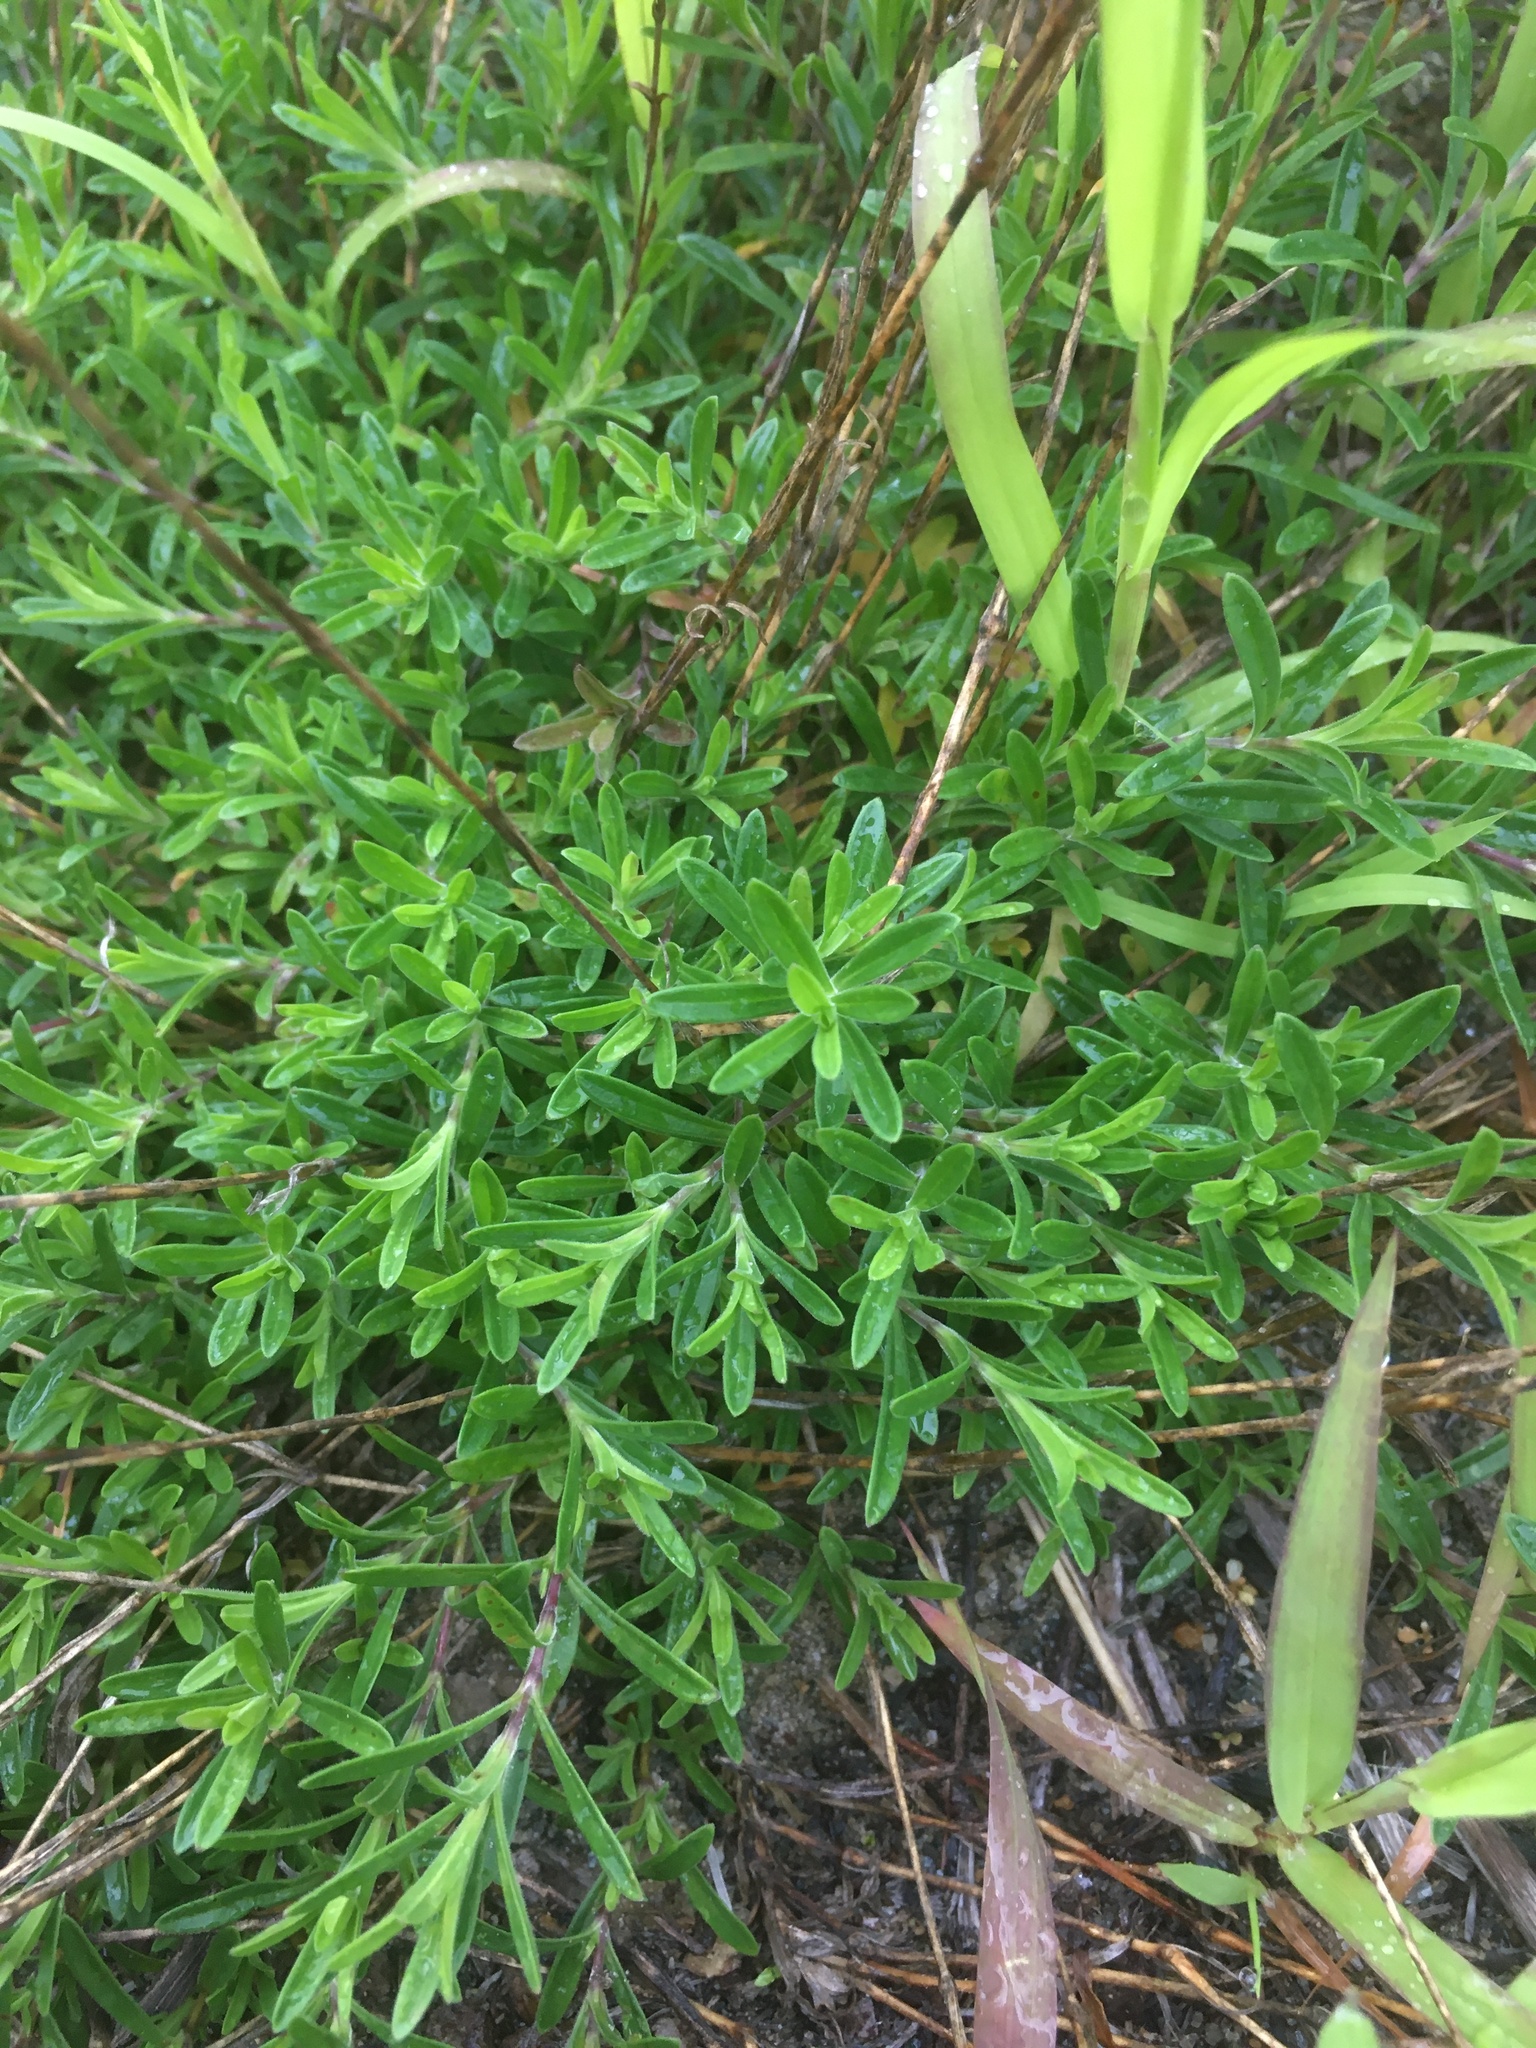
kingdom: Plantae
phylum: Tracheophyta
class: Magnoliopsida
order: Caryophyllales
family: Caryophyllaceae
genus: Dianthus
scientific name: Dianthus deltoides
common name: Maiden pink
